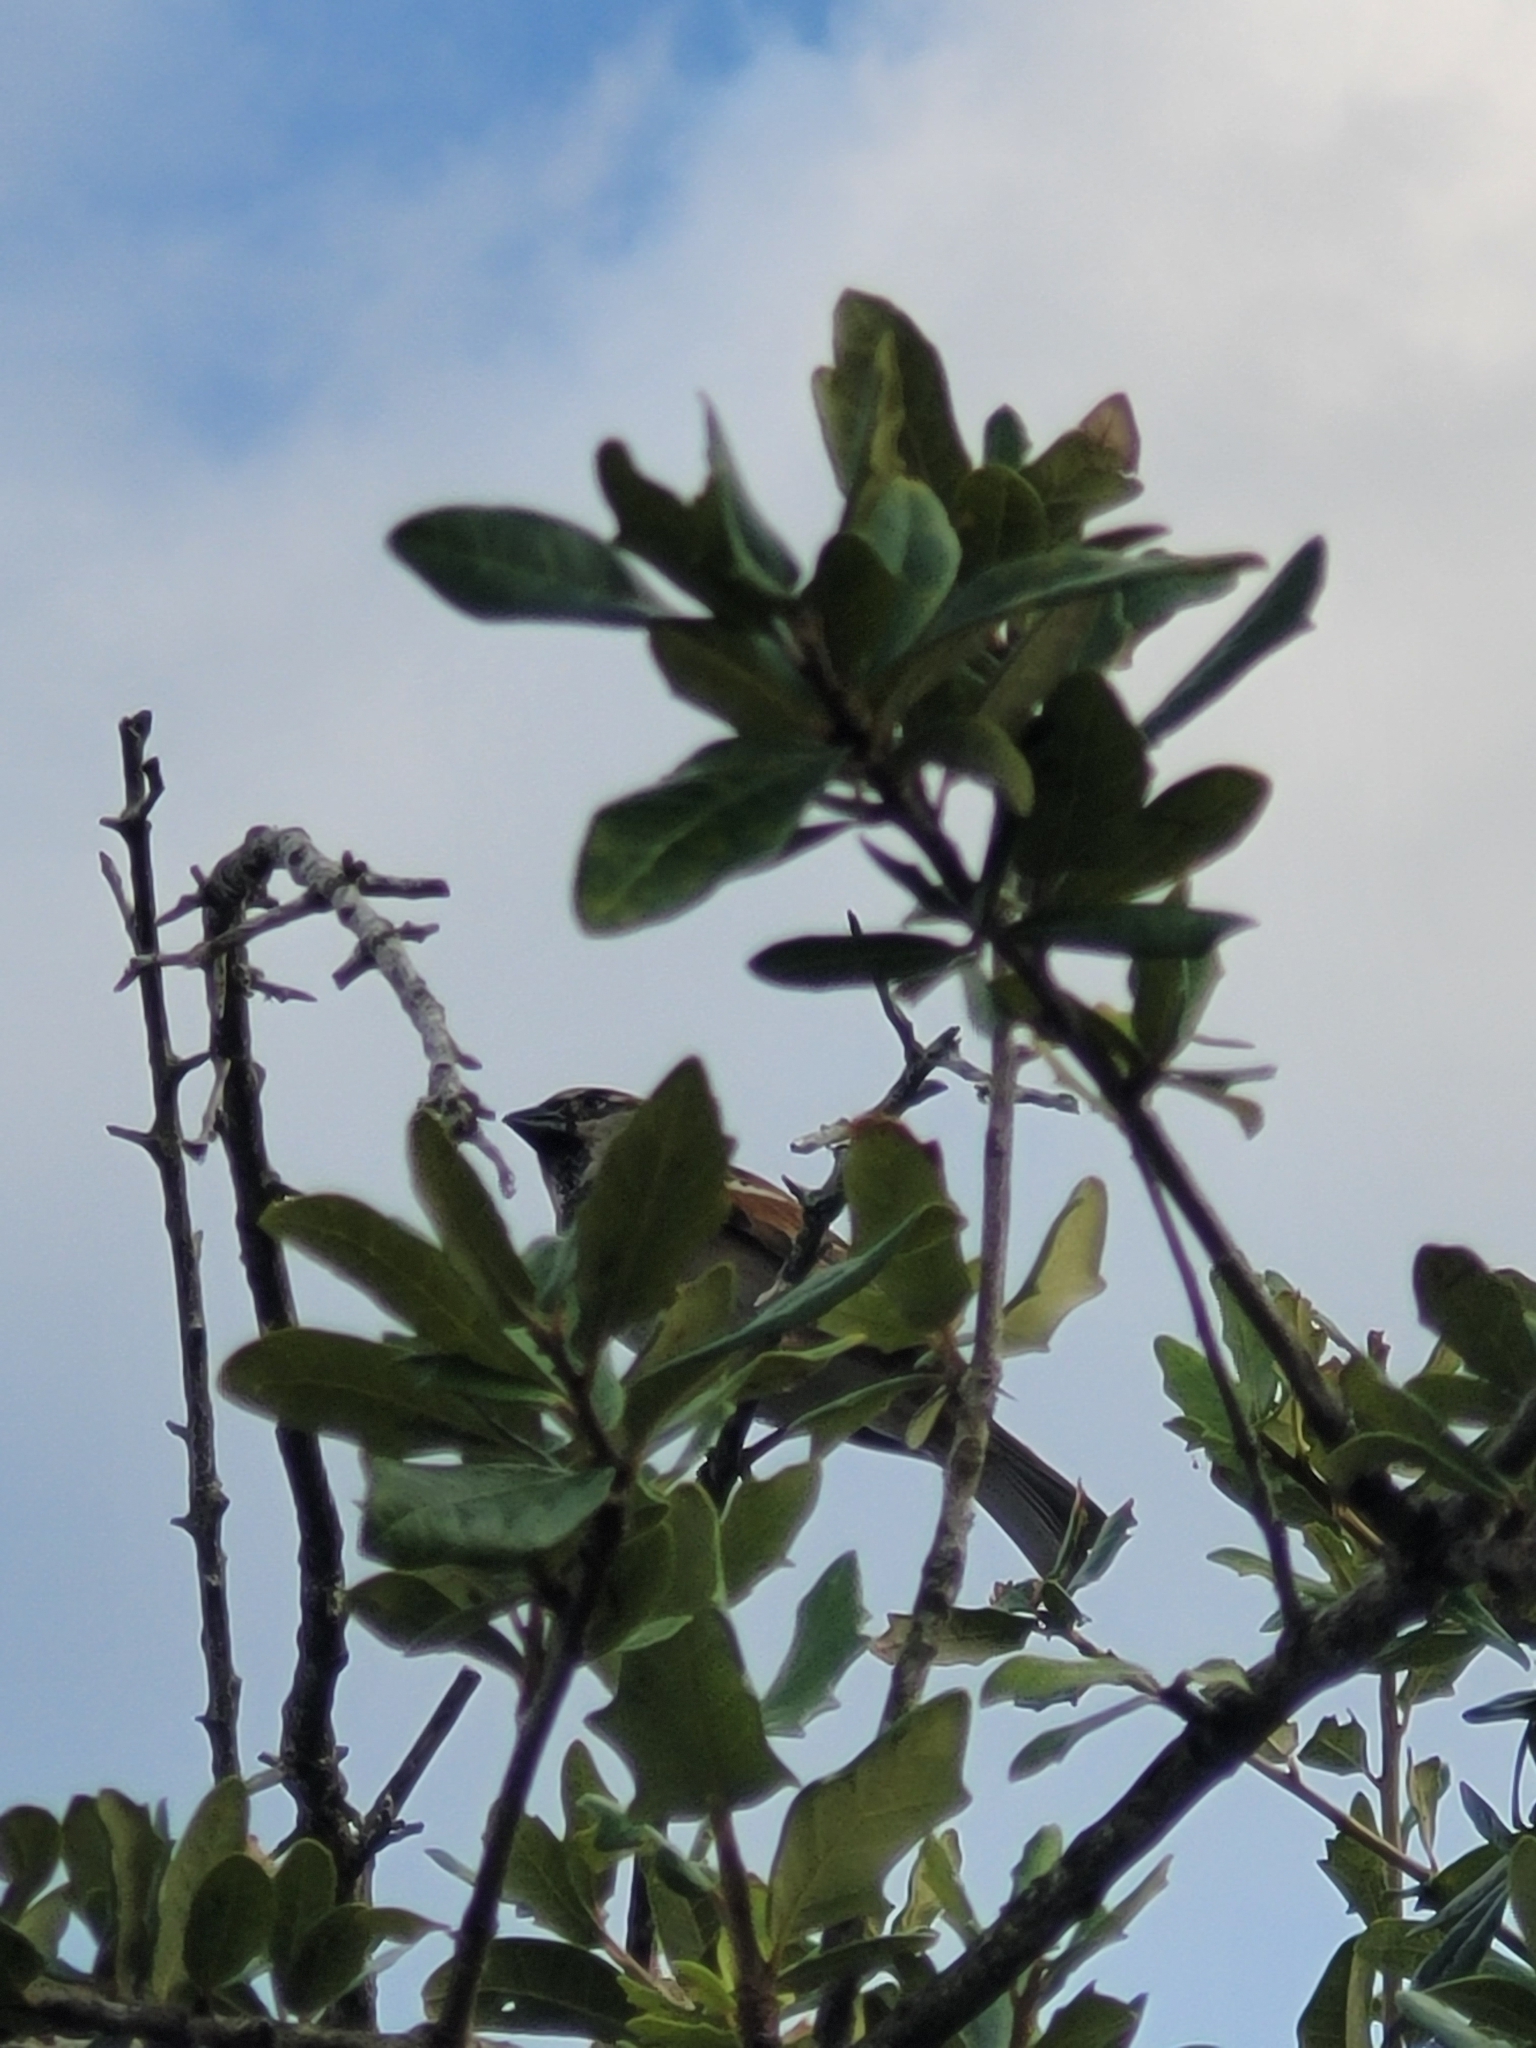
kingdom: Animalia
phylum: Chordata
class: Aves
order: Passeriformes
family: Passeridae
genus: Passer
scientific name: Passer domesticus
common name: House sparrow
